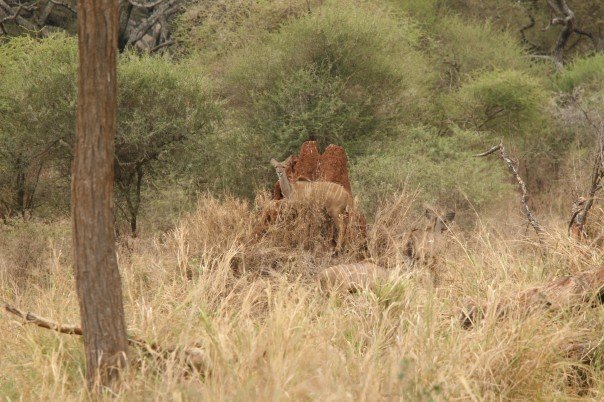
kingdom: Animalia
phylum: Chordata
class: Mammalia
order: Artiodactyla
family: Bovidae
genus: Tragelaphus
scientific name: Tragelaphus strepsiceros
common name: Greater kudu
